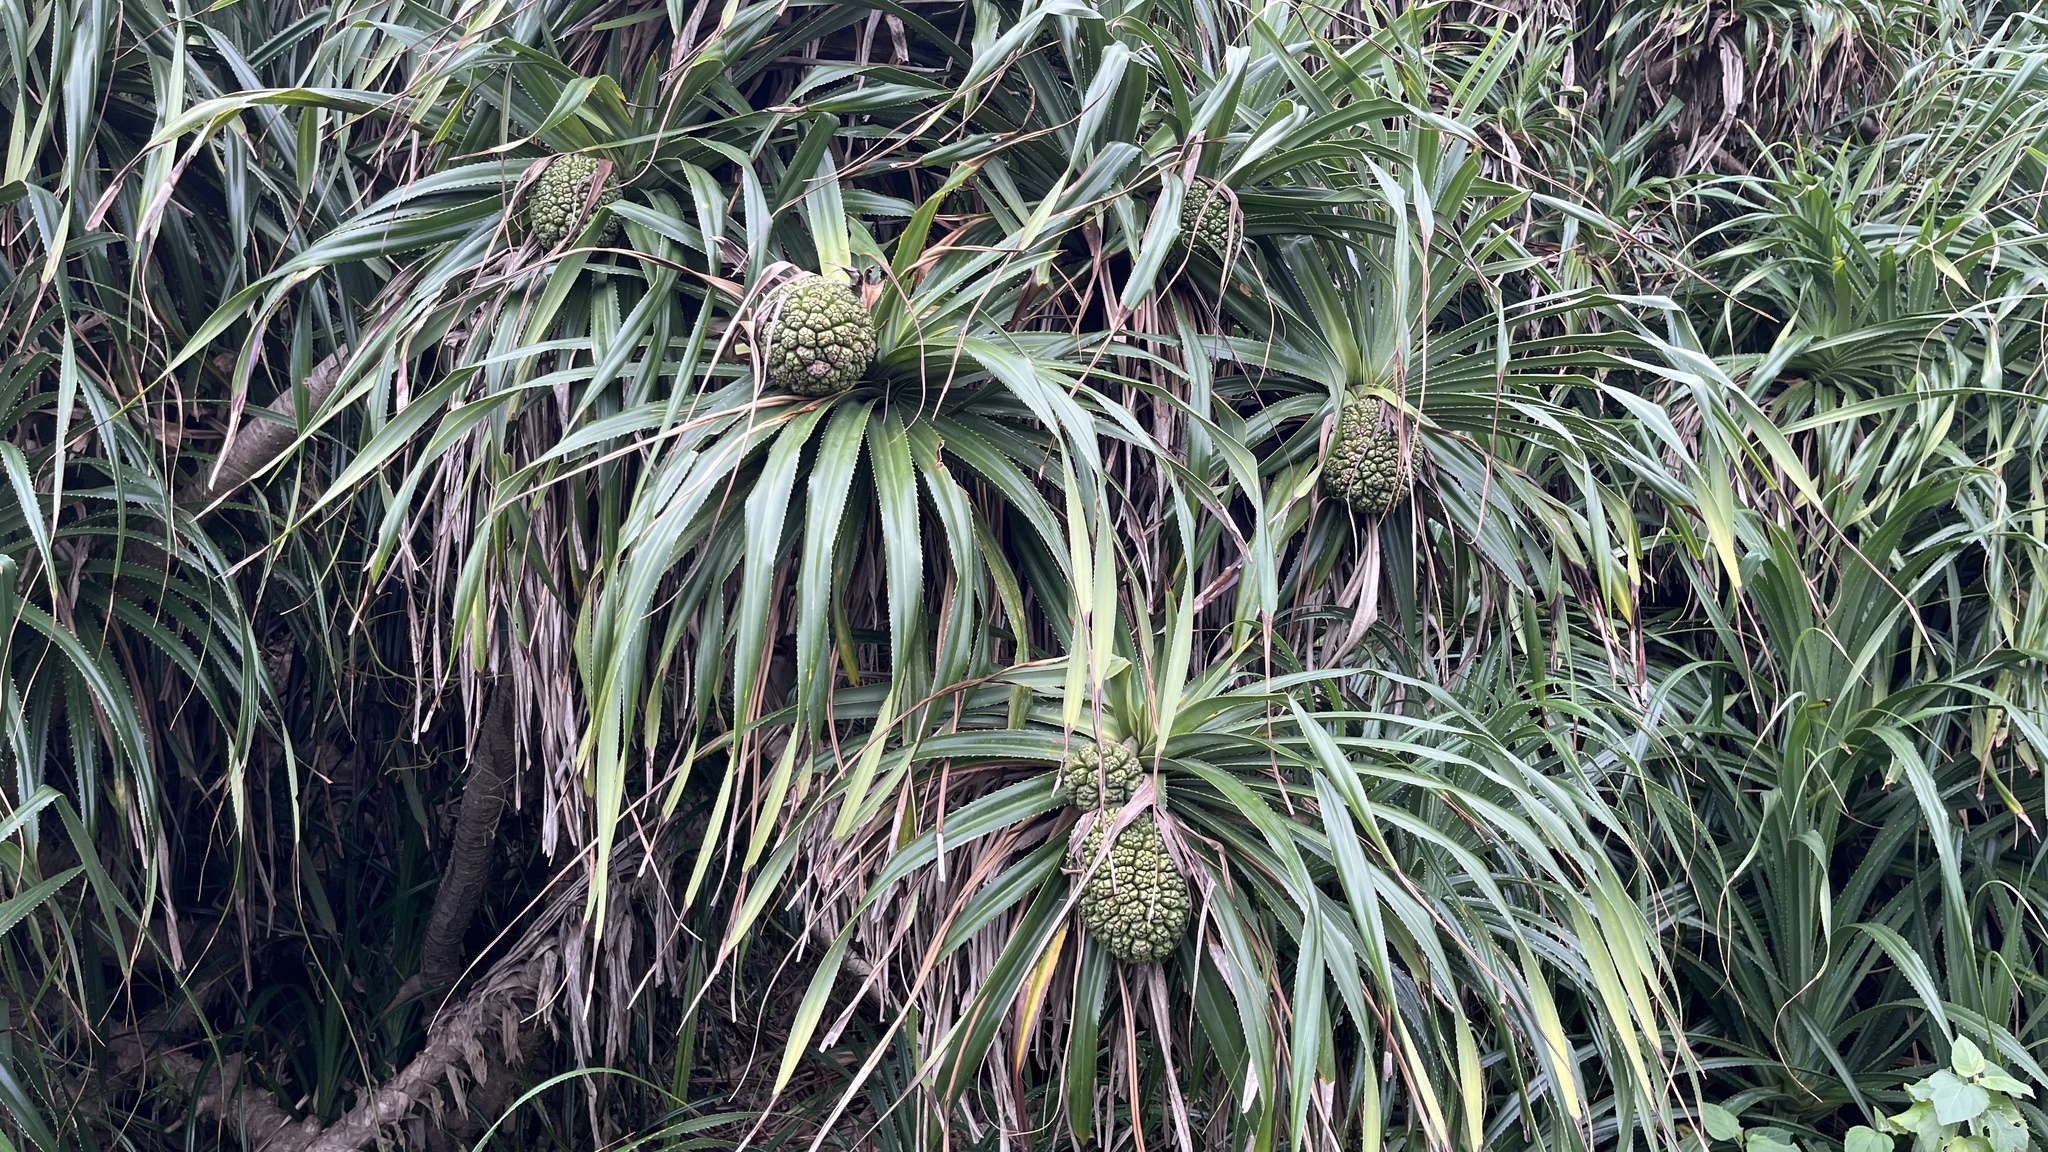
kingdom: Plantae
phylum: Tracheophyta
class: Liliopsida
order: Pandanales
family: Pandanaceae
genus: Pandanus
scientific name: Pandanus odorifer
